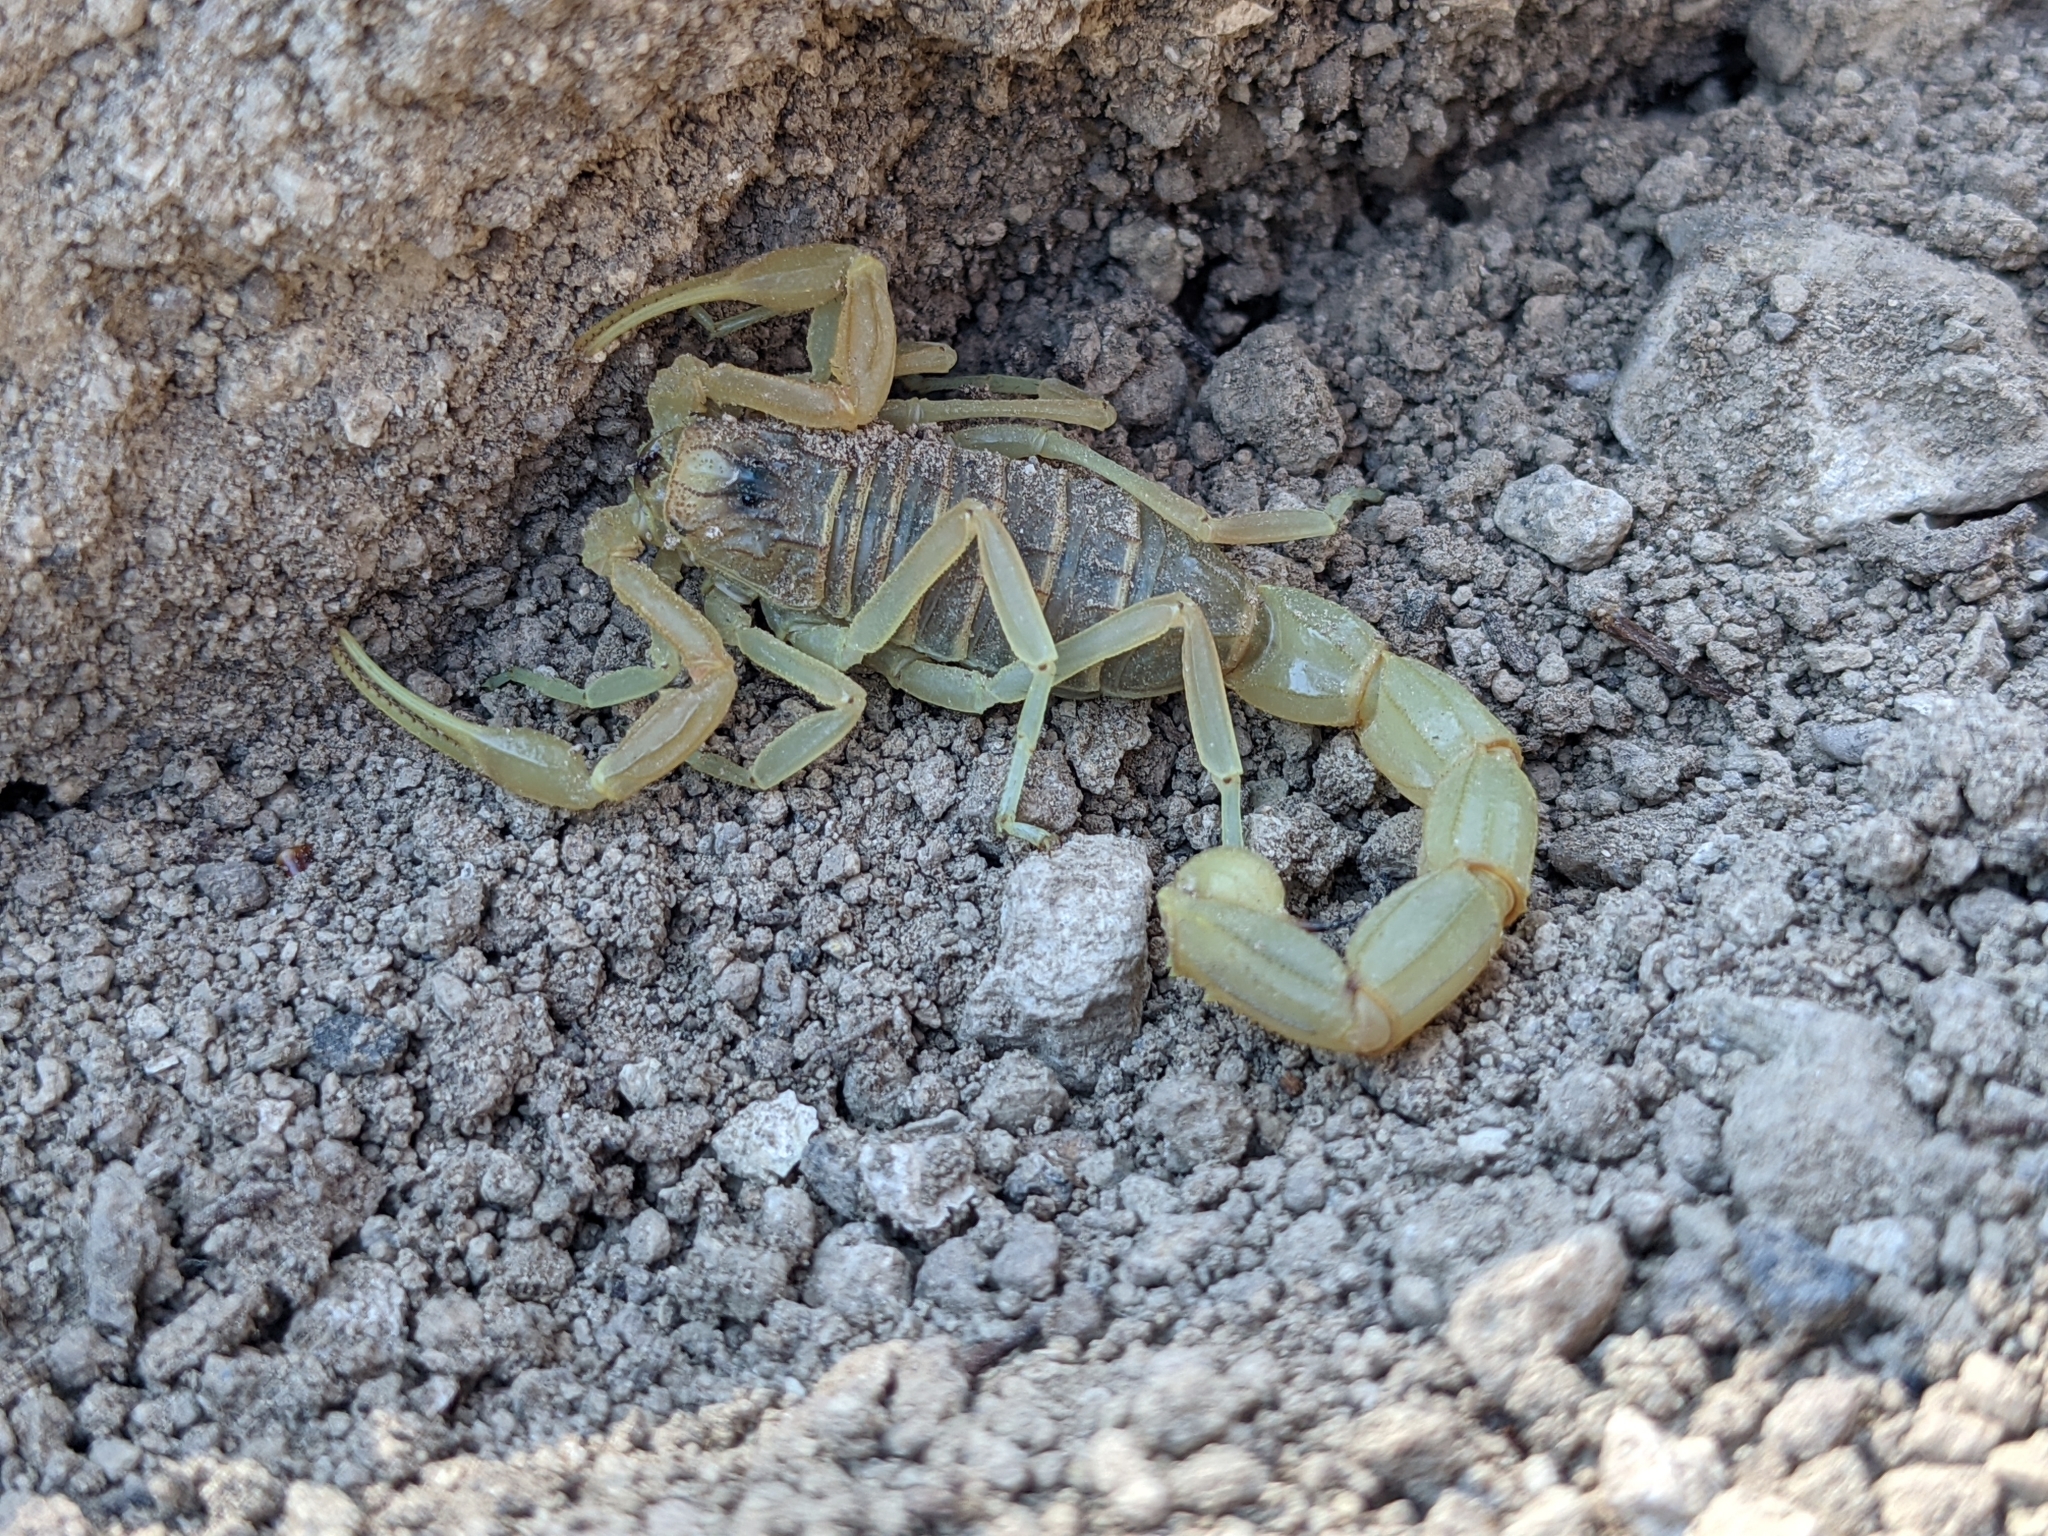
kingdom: Animalia
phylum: Arthropoda
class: Arachnida
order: Scorpiones
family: Buthidae
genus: Buthus
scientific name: Buthus occitanus
